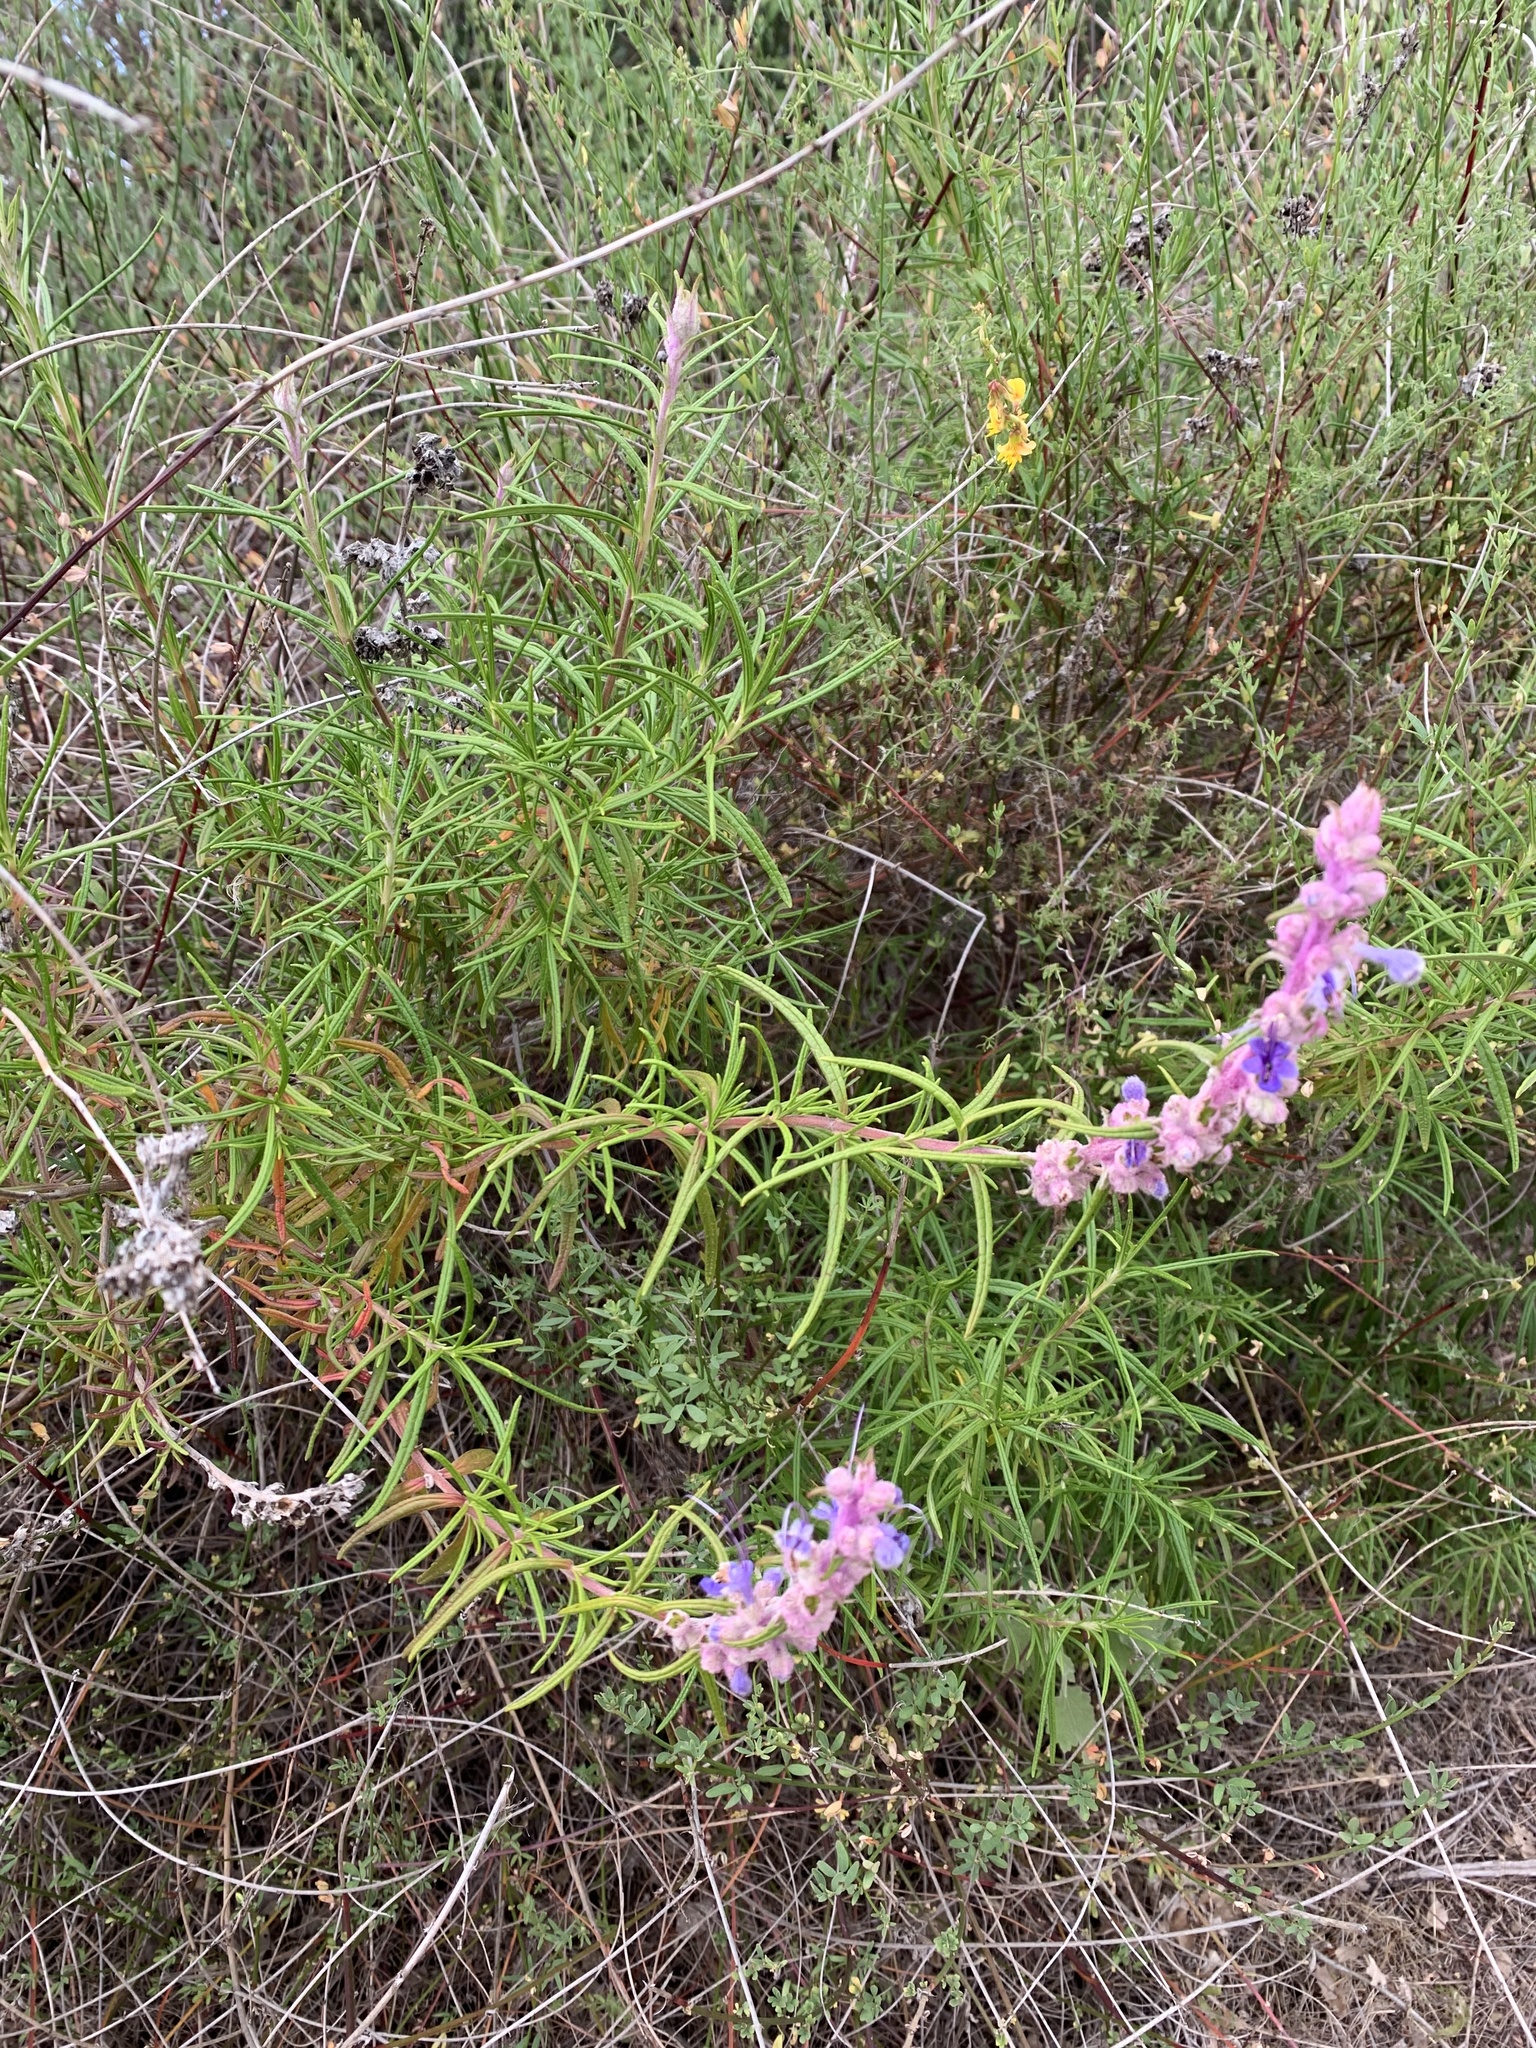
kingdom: Plantae
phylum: Tracheophyta
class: Magnoliopsida
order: Lamiales
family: Lamiaceae
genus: Trichostema
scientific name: Trichostema lanatum
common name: Woolly bluecurls
